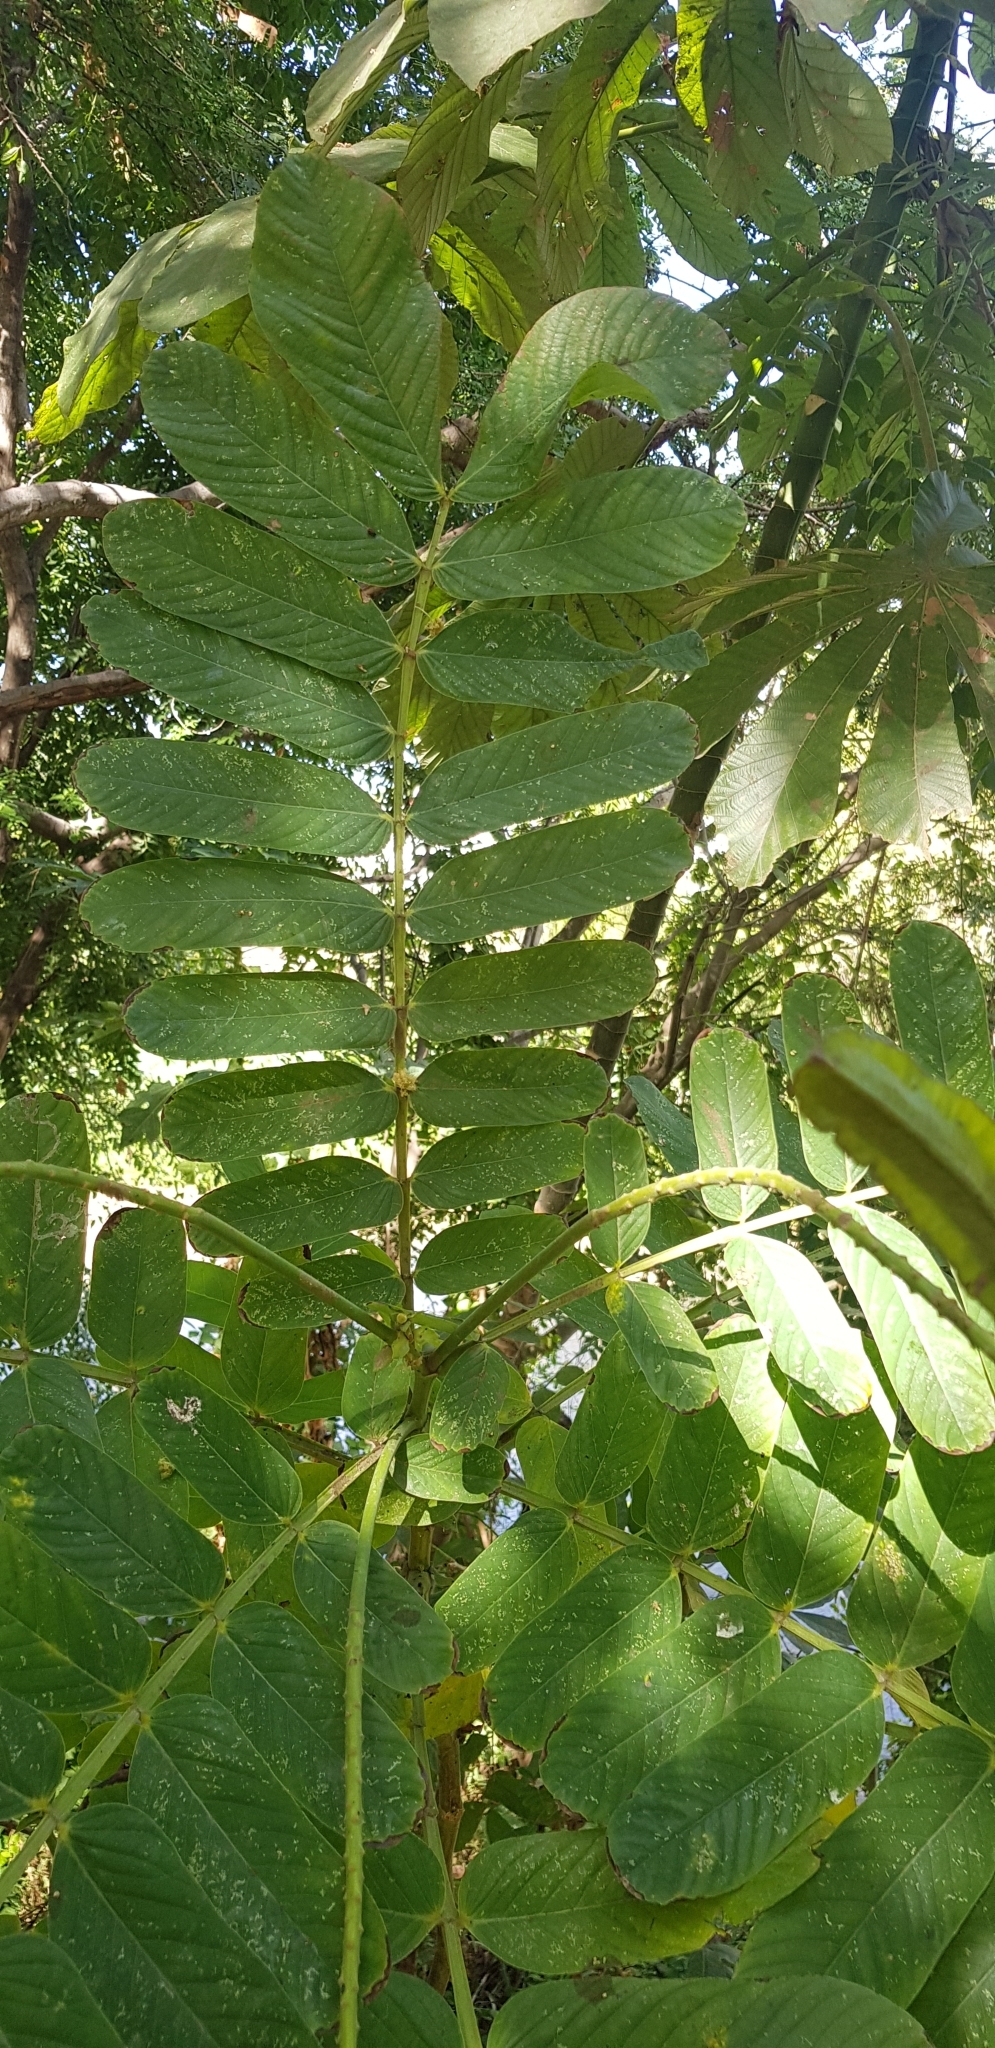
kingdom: Plantae
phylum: Tracheophyta
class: Magnoliopsida
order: Fabales
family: Fabaceae
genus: Senna
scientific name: Senna alata
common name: Emperor's candlesticks
